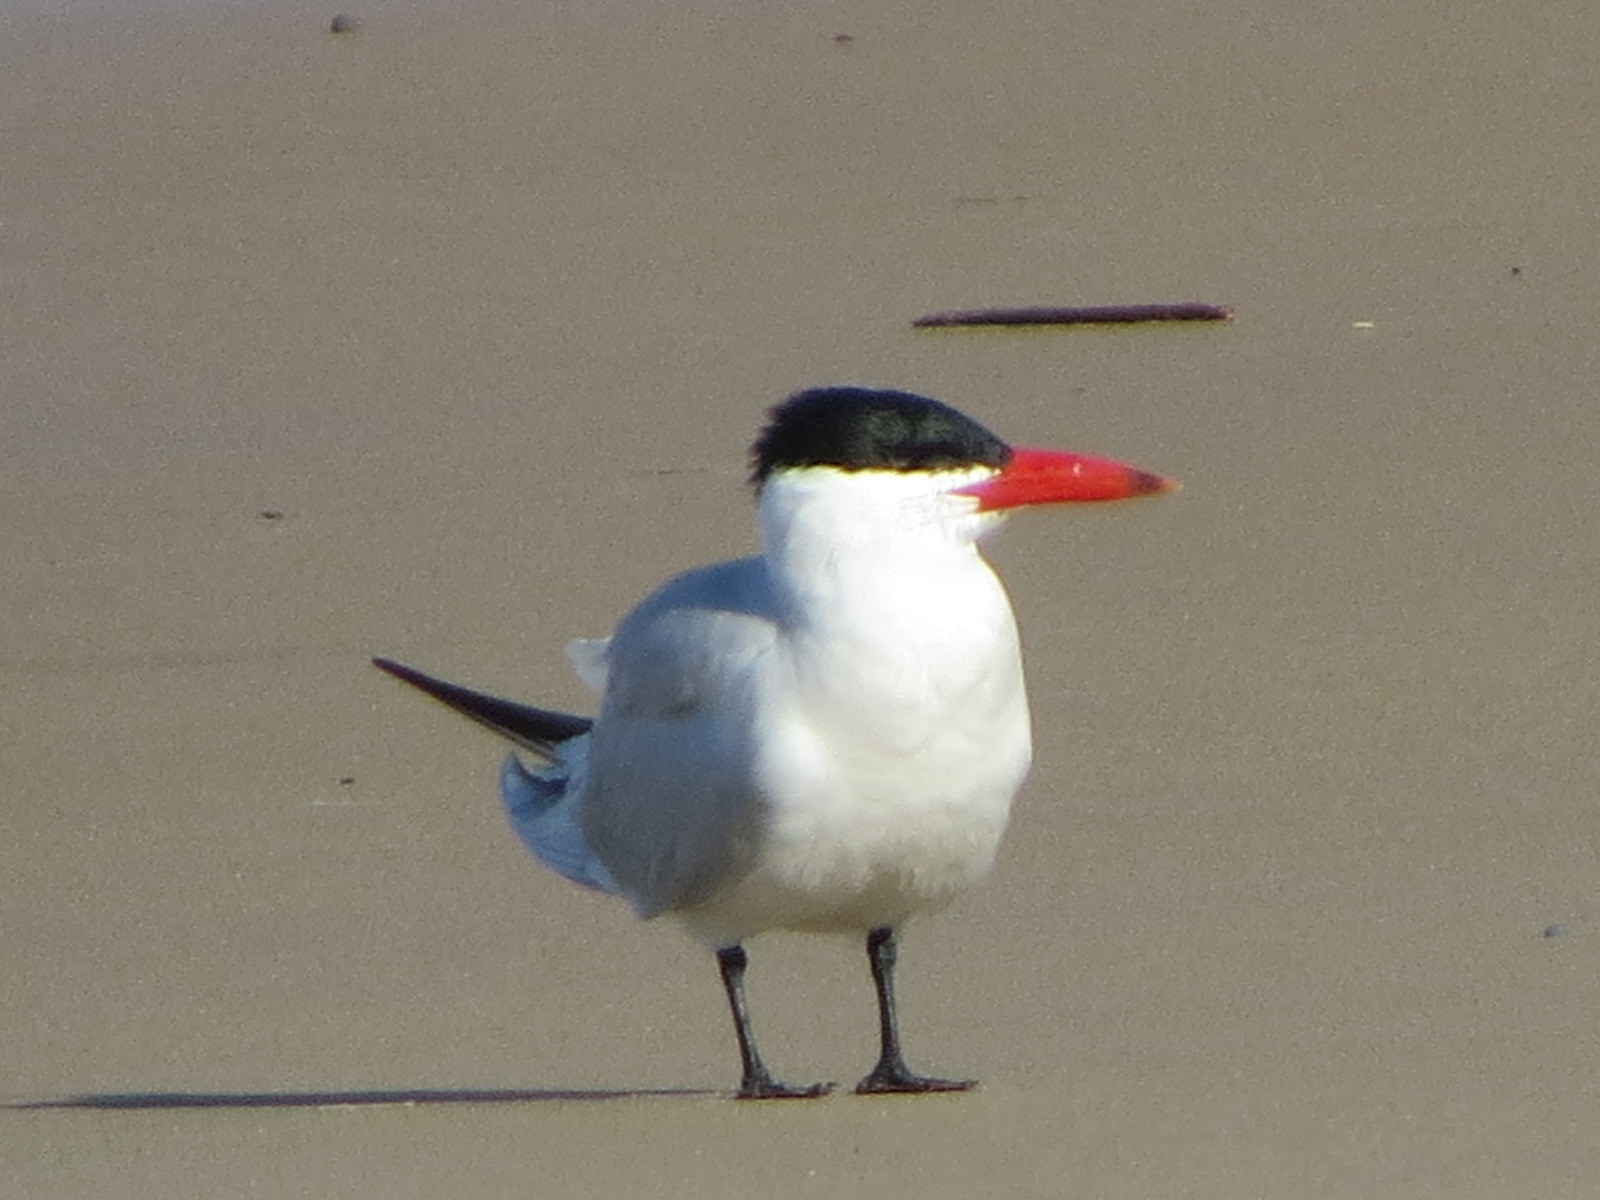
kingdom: Animalia
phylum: Chordata
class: Aves
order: Charadriiformes
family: Laridae
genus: Hydroprogne
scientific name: Hydroprogne caspia
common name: Caspian tern
